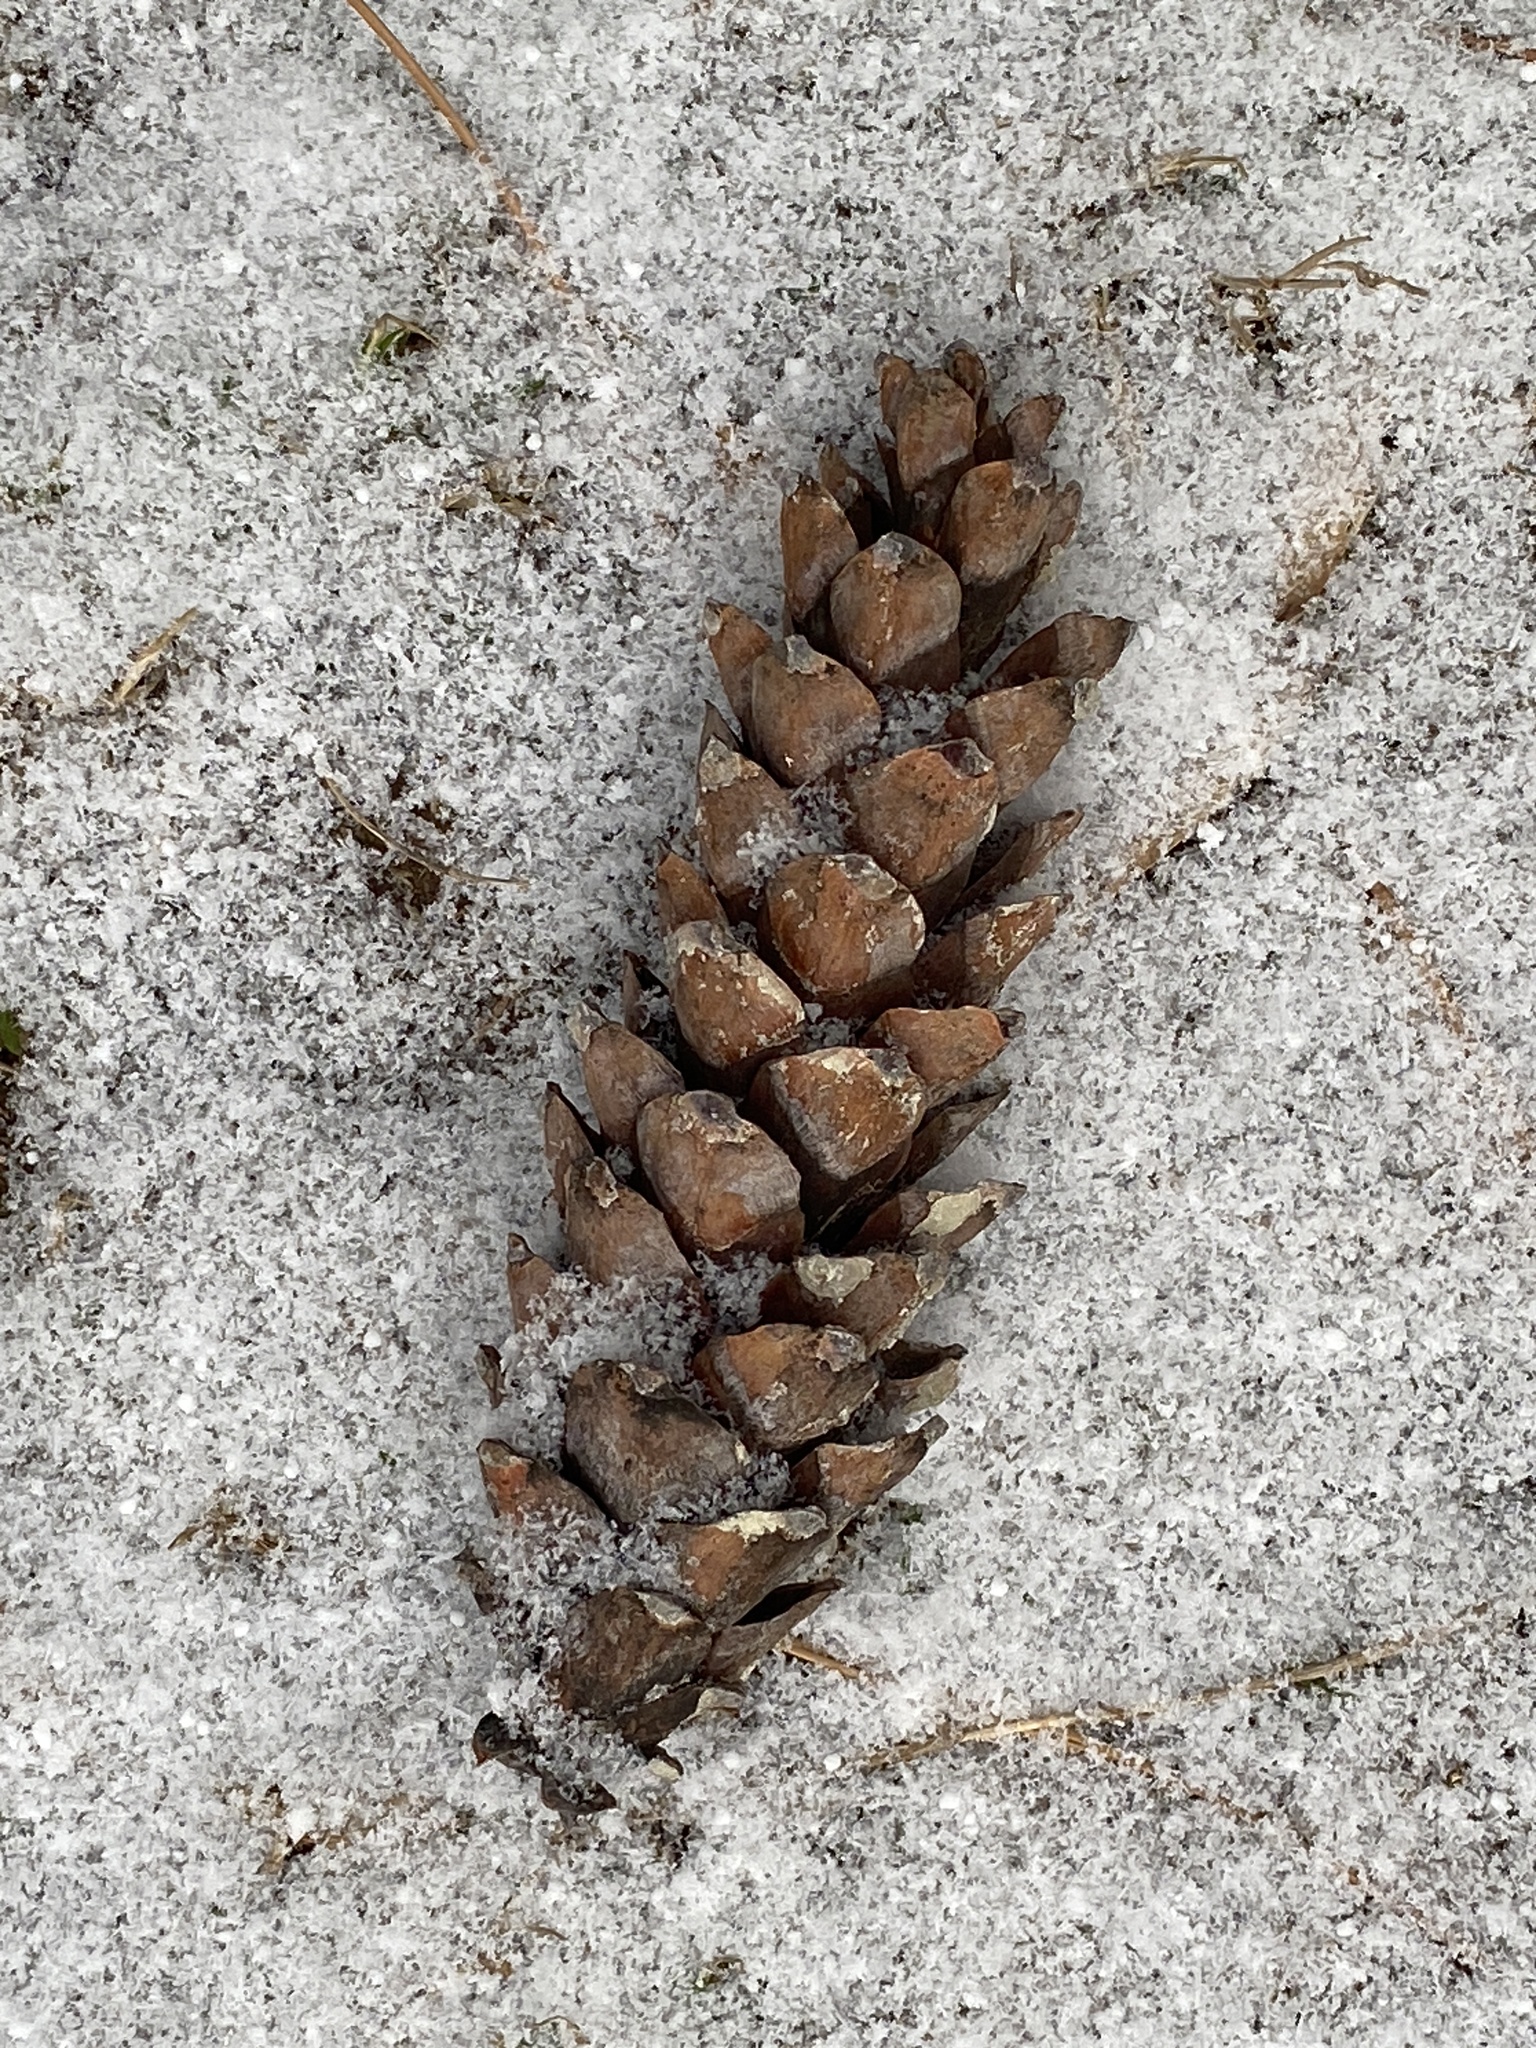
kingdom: Plantae
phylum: Tracheophyta
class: Pinopsida
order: Pinales
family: Pinaceae
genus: Pinus
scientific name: Pinus strobus
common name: Weymouth pine
